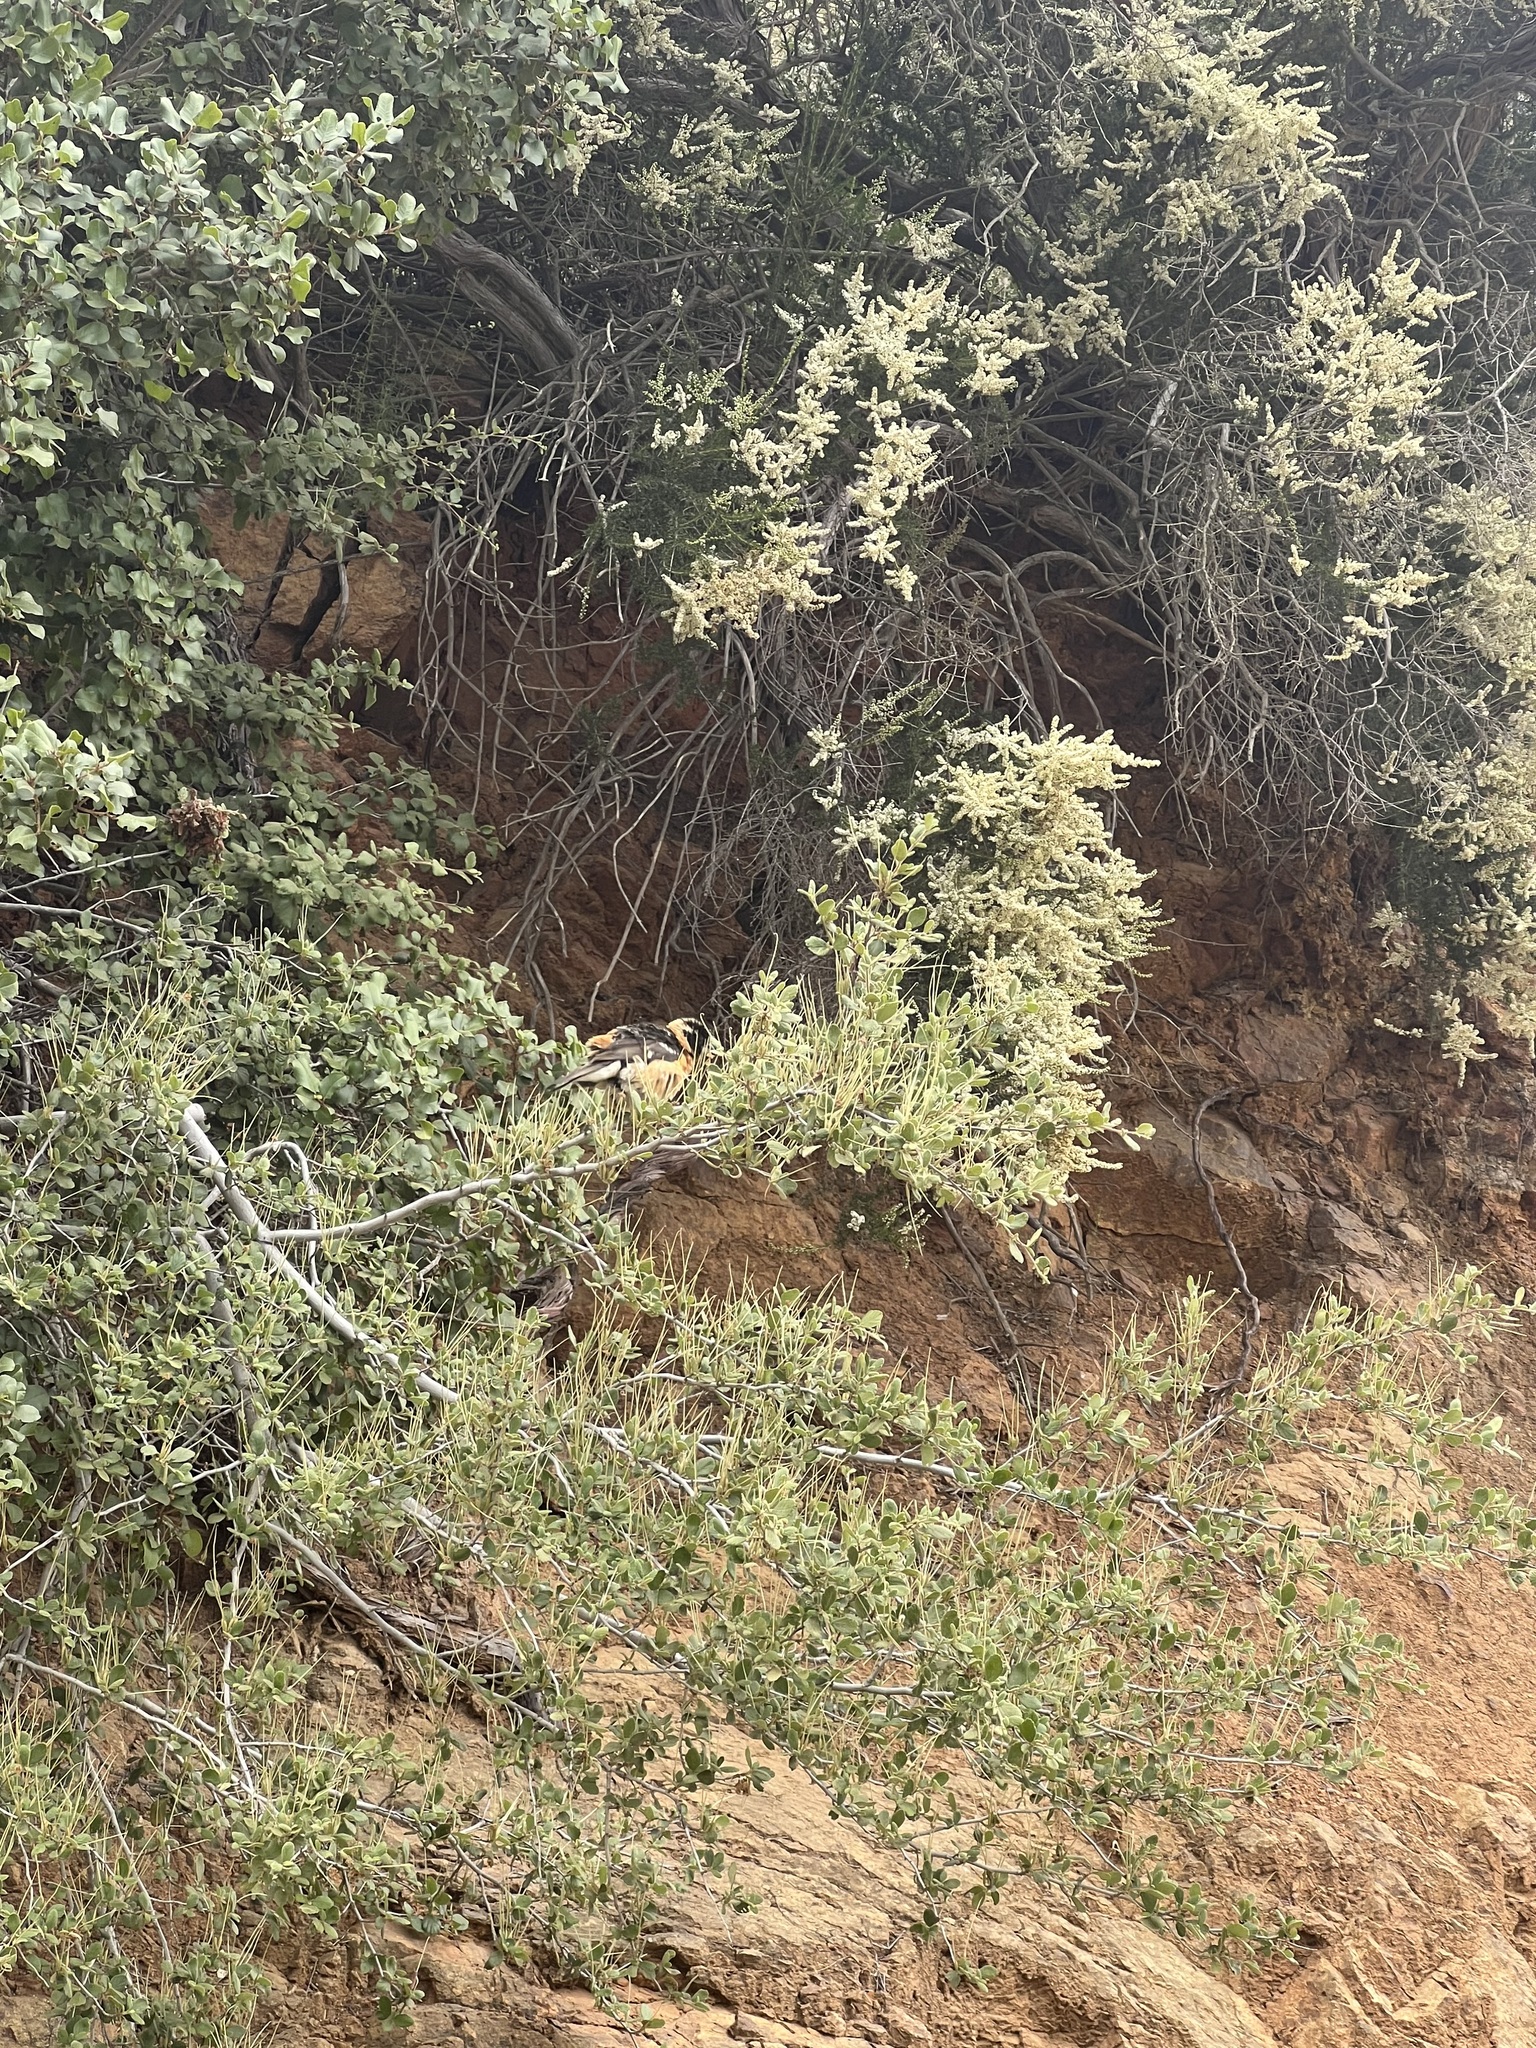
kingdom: Animalia
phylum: Chordata
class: Aves
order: Passeriformes
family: Cardinalidae
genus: Pheucticus
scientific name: Pheucticus melanocephalus
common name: Black-headed grosbeak
